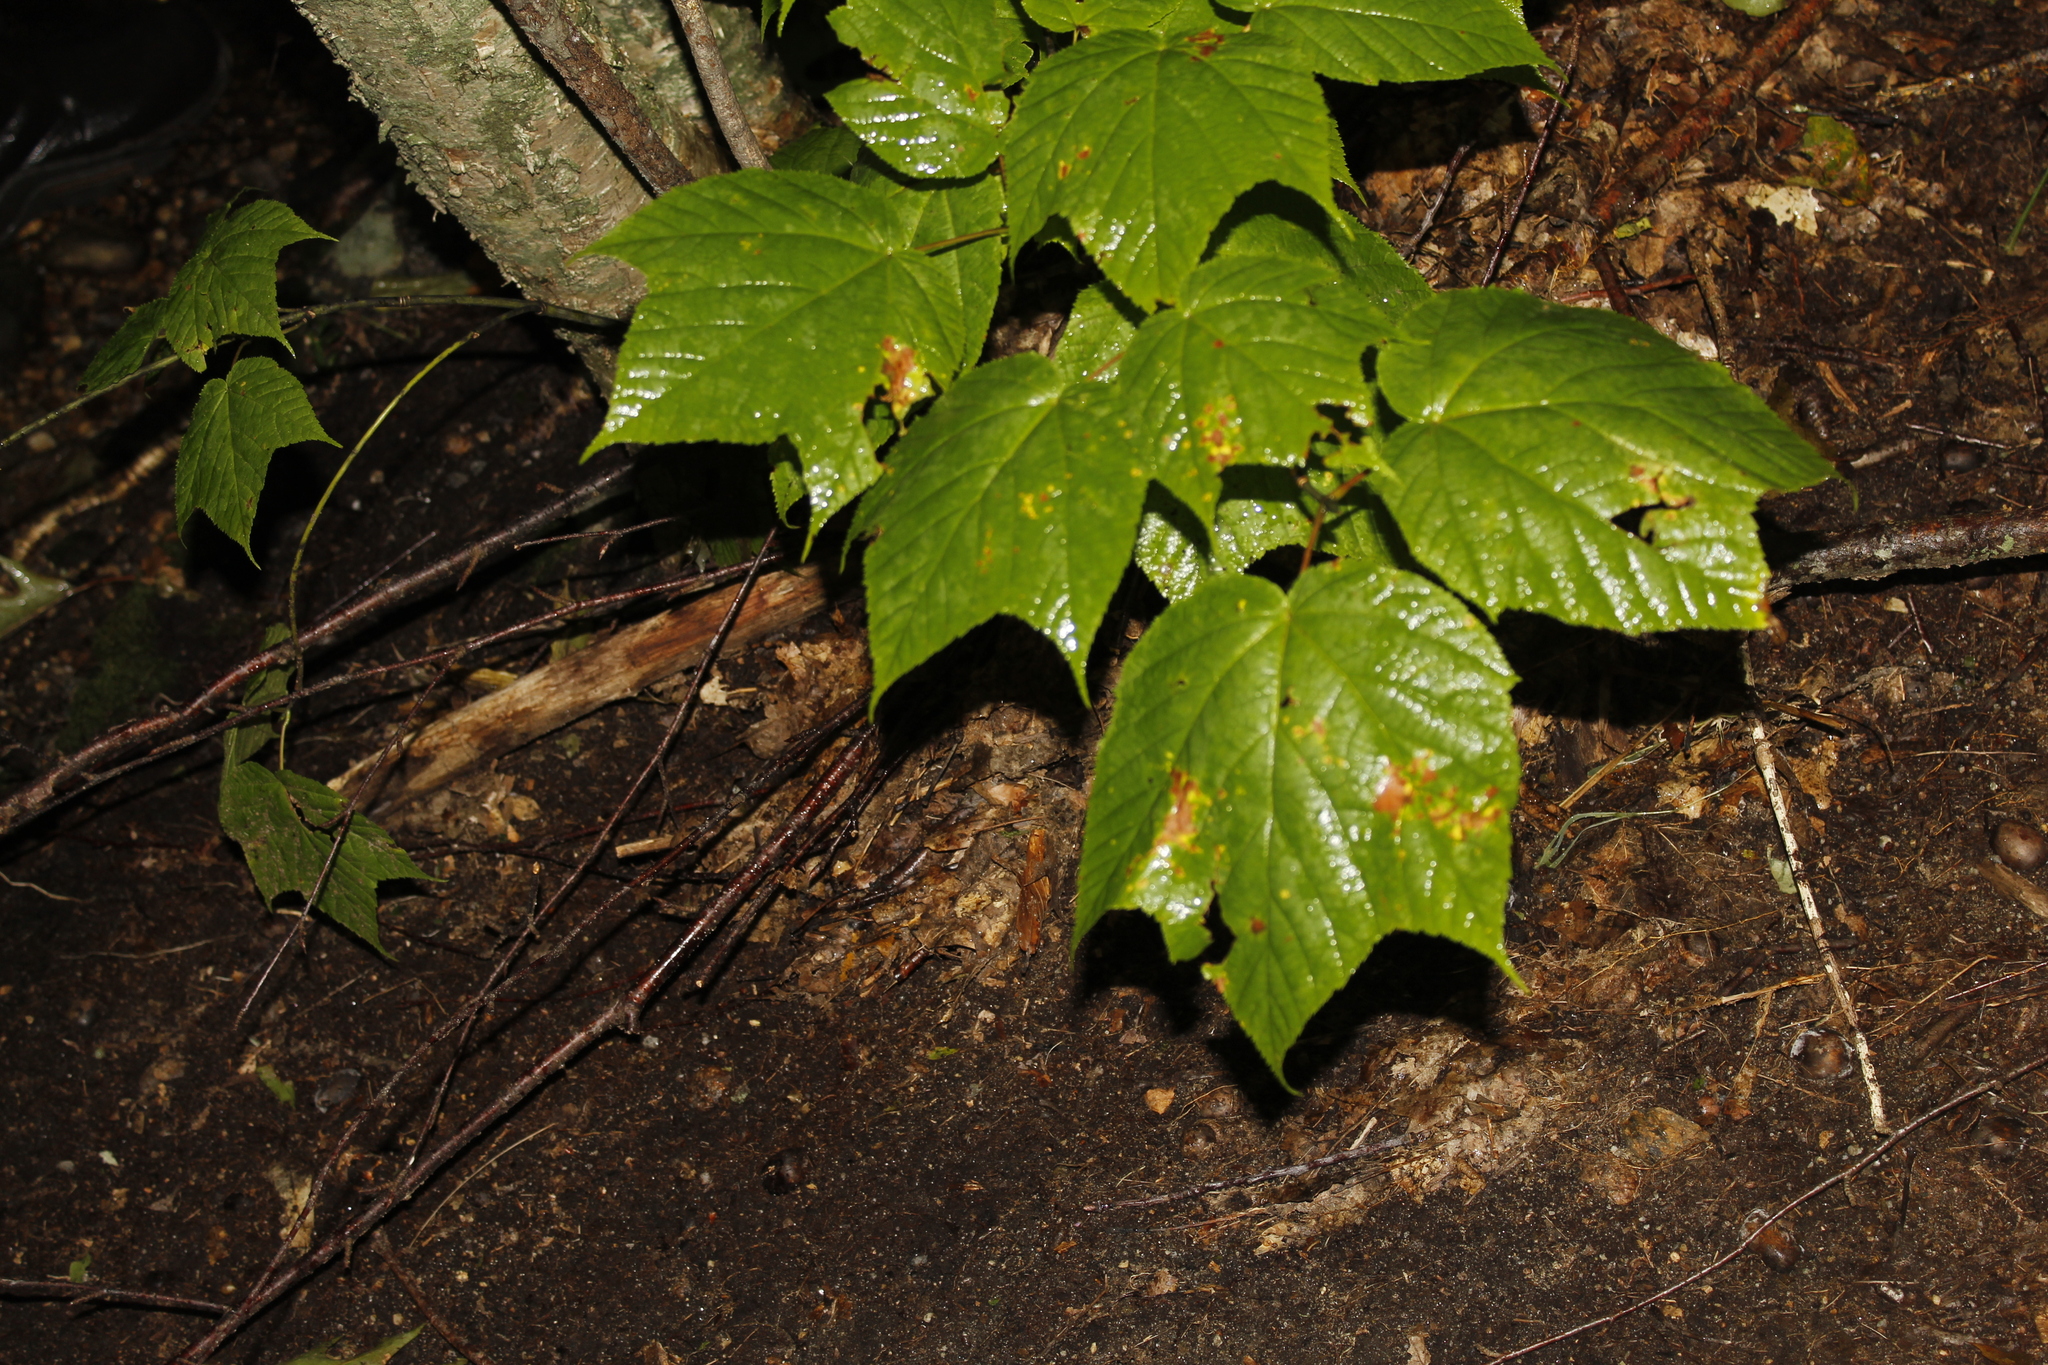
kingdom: Plantae
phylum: Tracheophyta
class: Magnoliopsida
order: Sapindales
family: Sapindaceae
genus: Acer
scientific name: Acer pensylvanicum
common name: Moosewood
